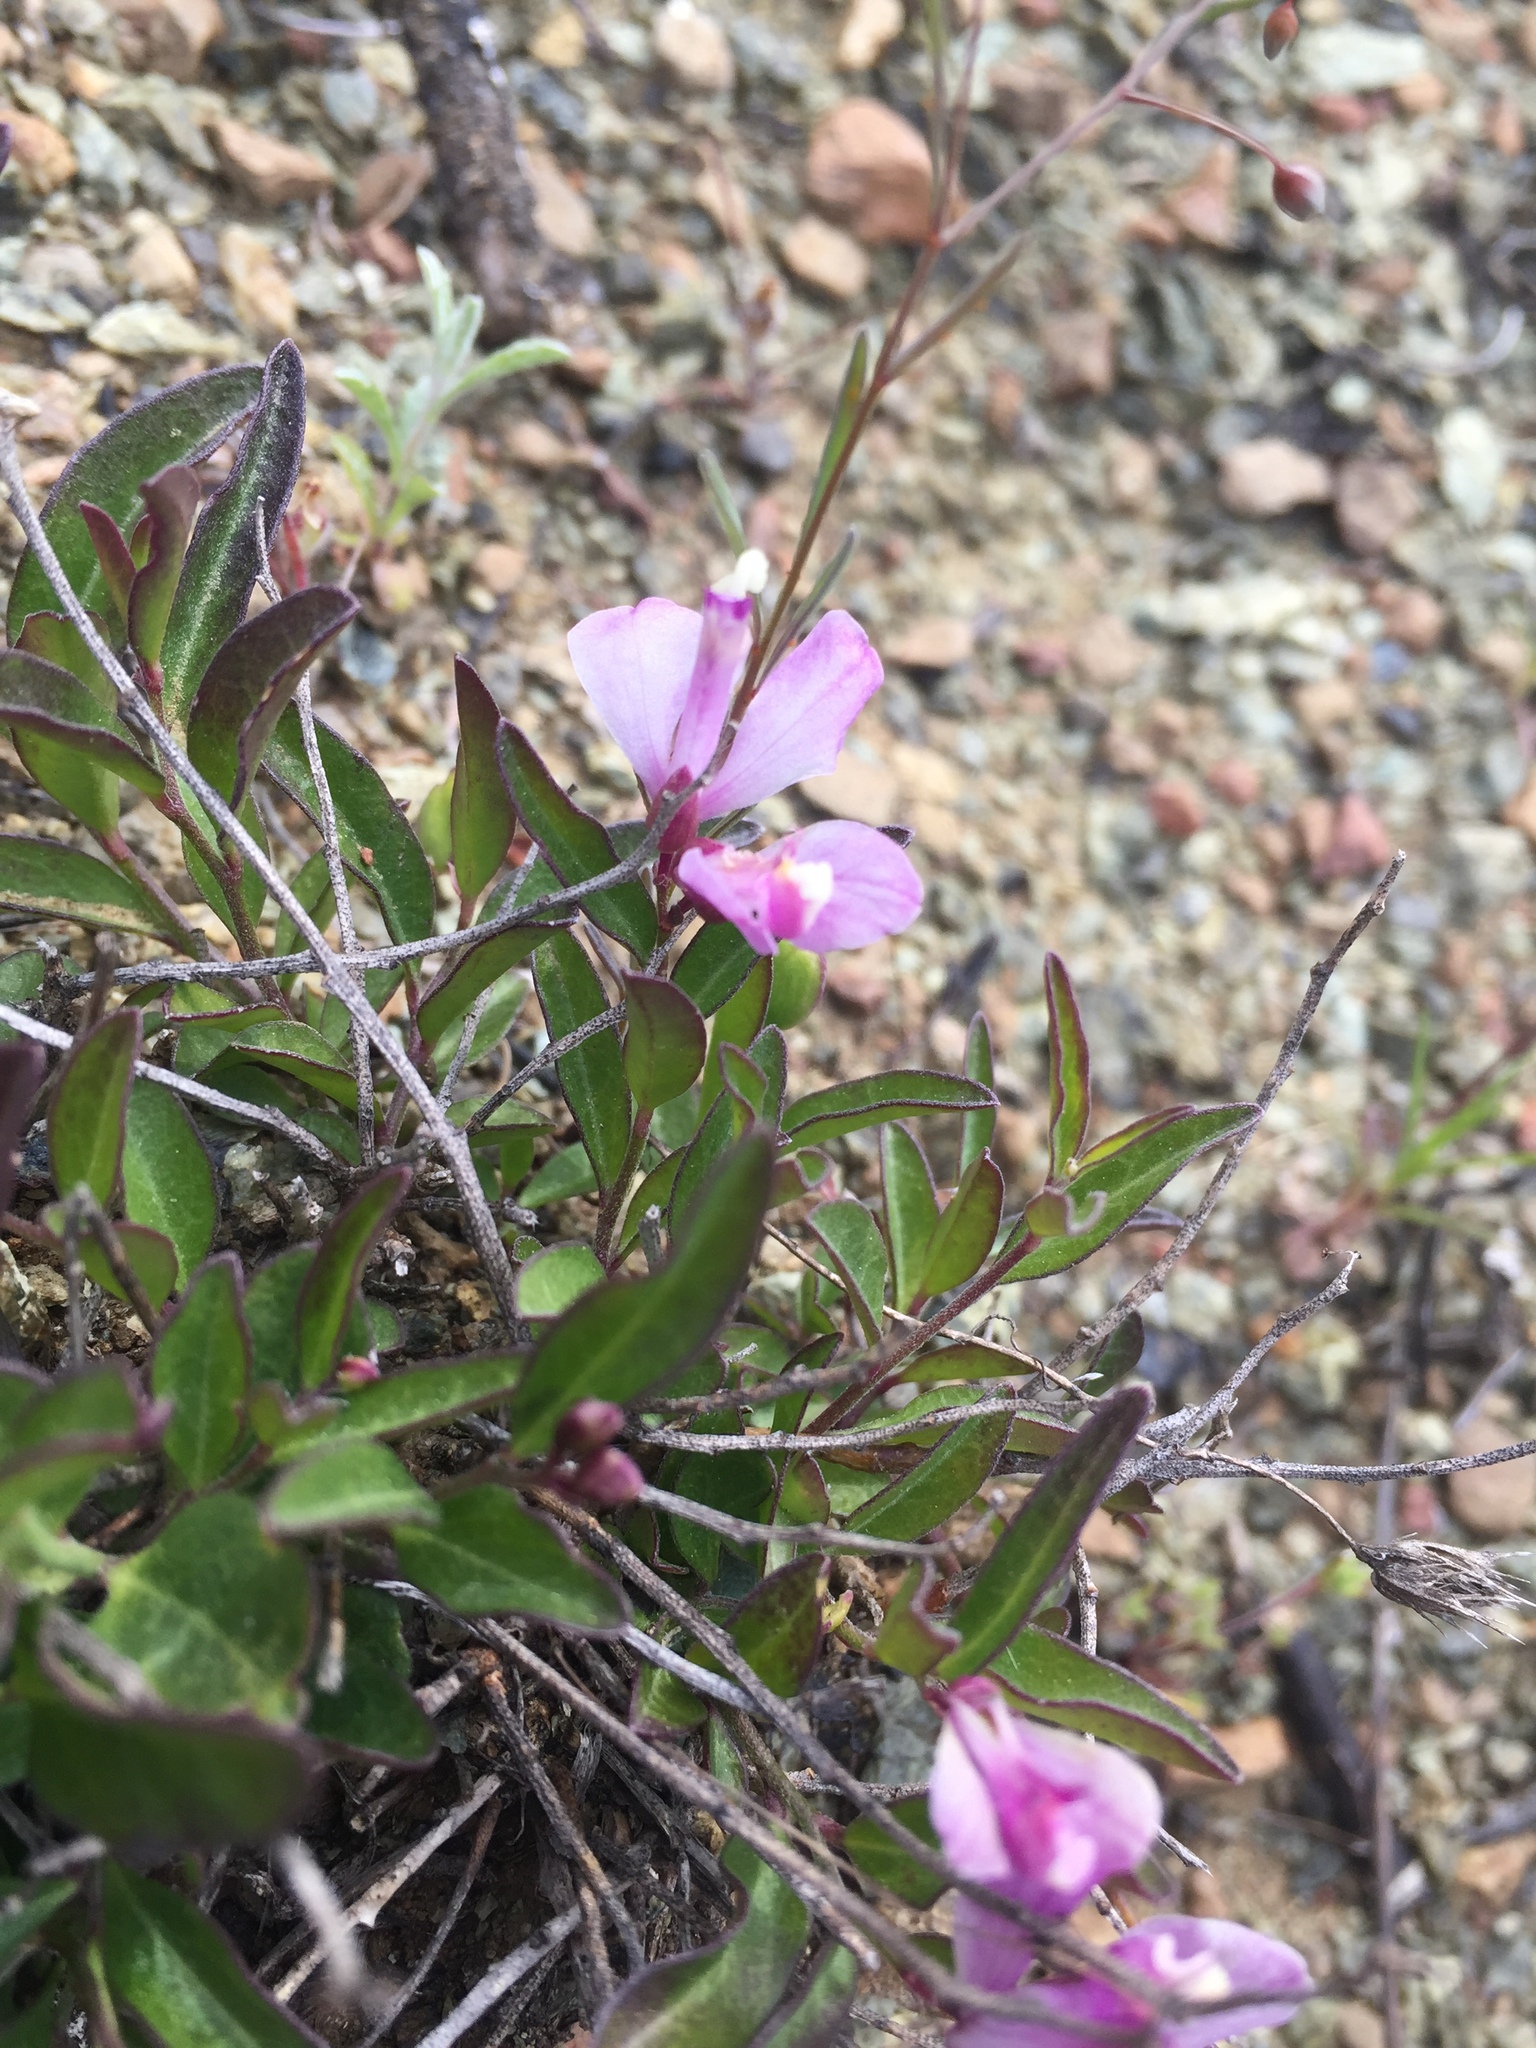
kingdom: Plantae
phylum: Tracheophyta
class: Magnoliopsida
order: Fabales
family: Polygalaceae
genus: Rhinotropis
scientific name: Rhinotropis californica
